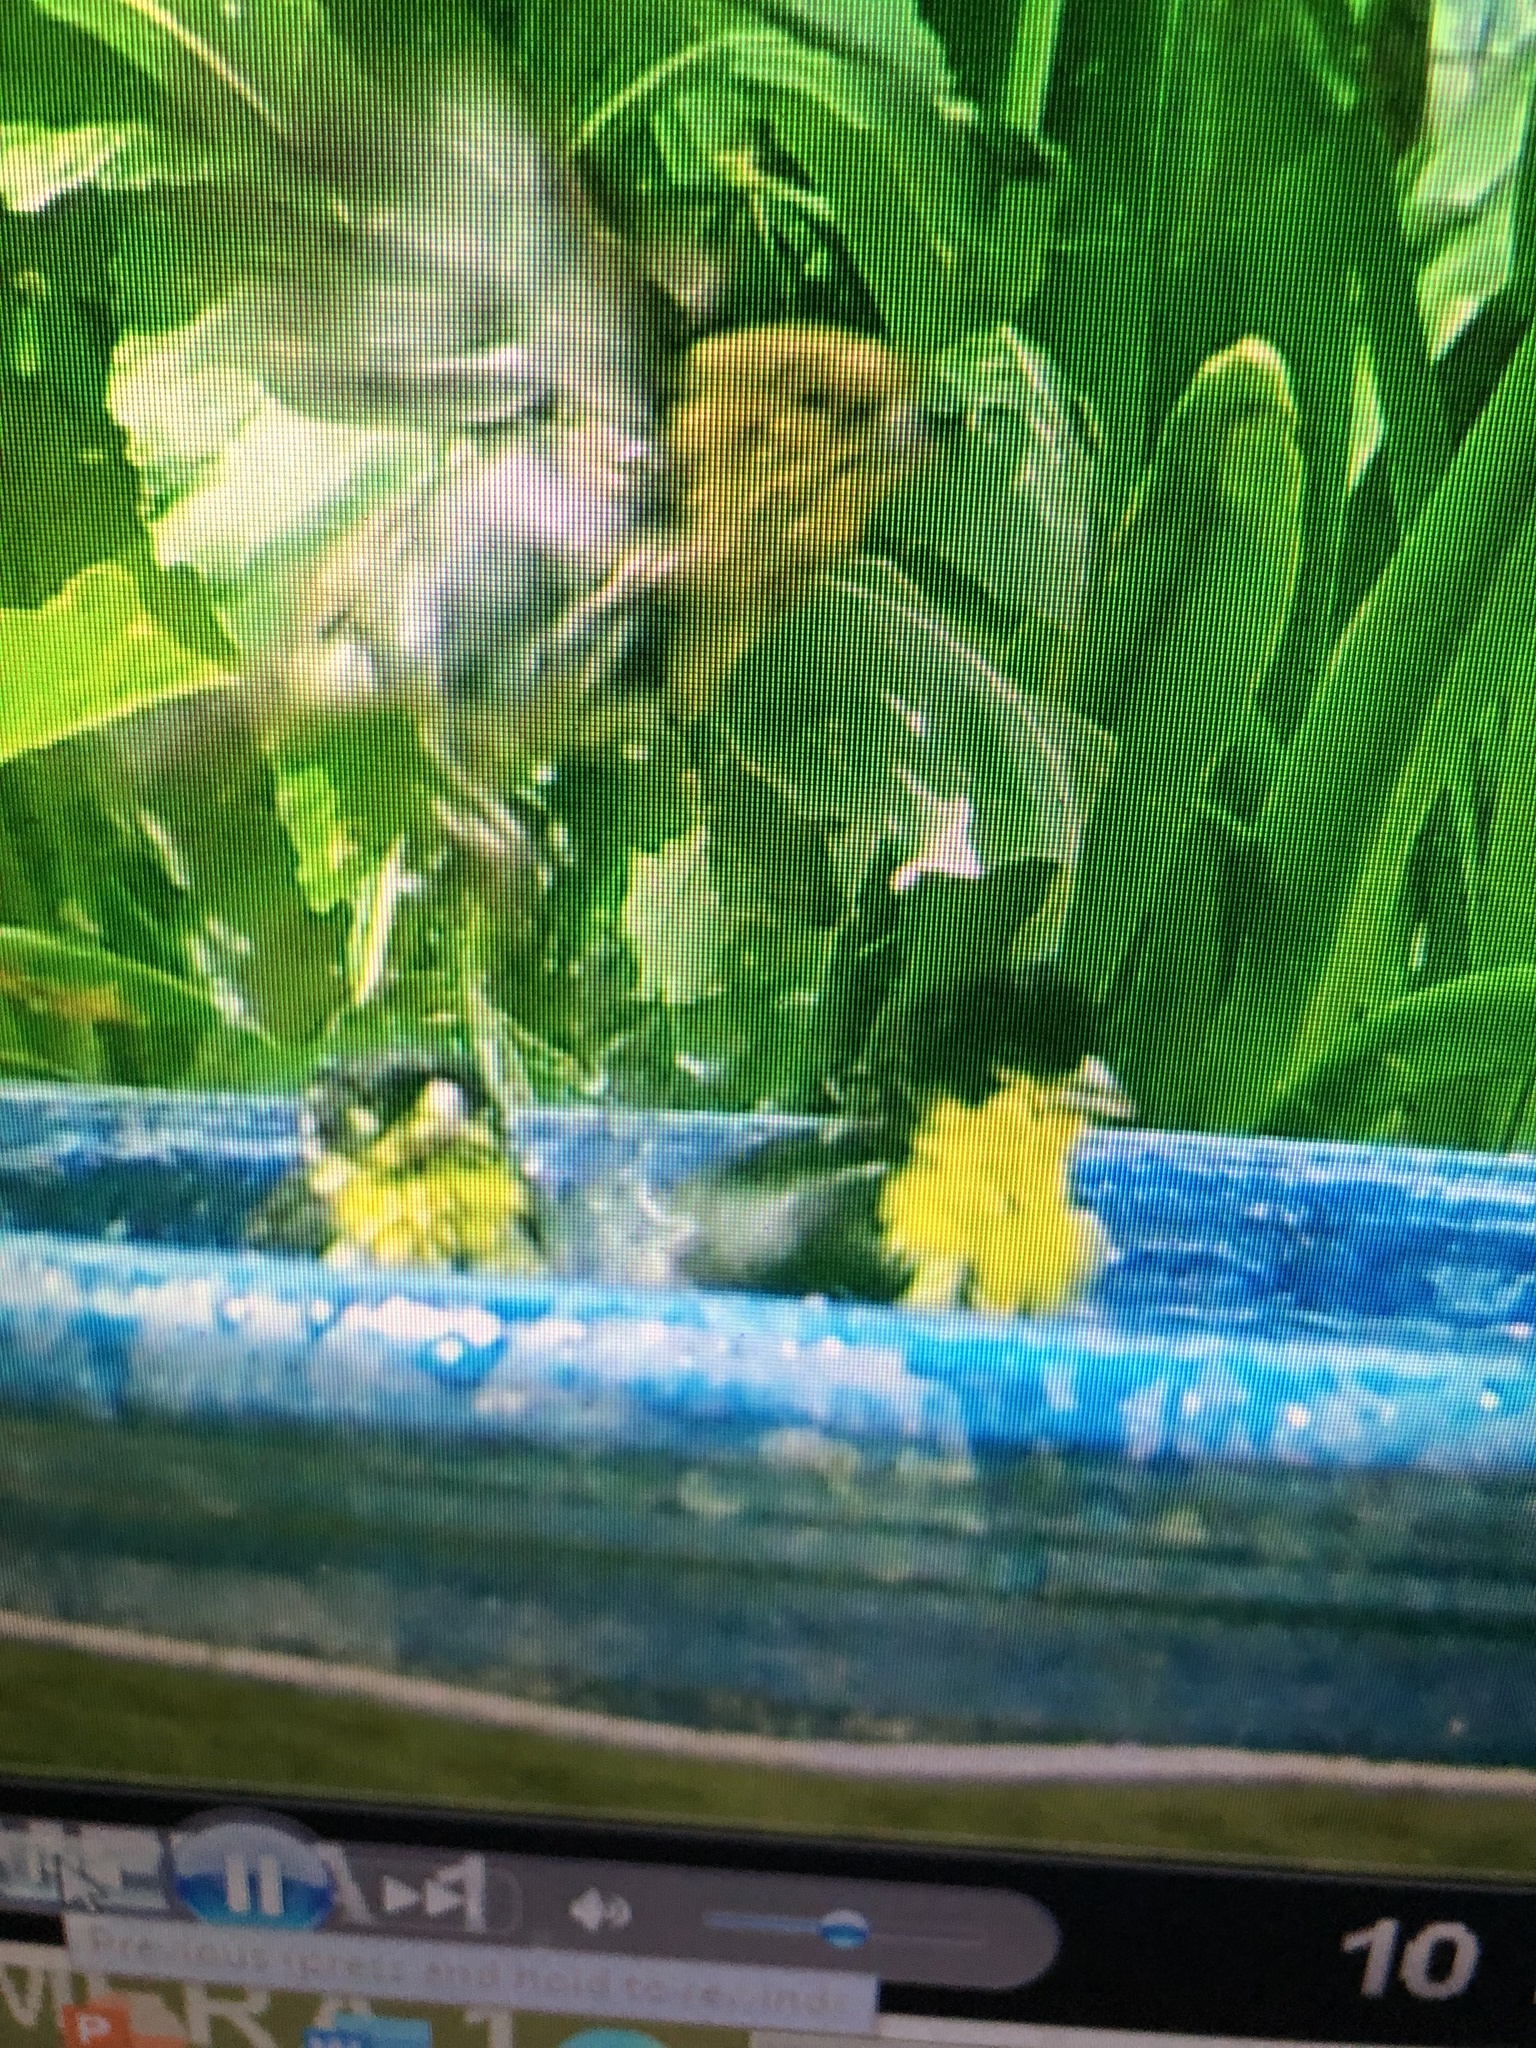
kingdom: Animalia
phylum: Chordata
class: Aves
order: Passeriformes
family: Fringillidae
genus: Spinus
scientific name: Spinus psaltria
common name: Lesser goldfinch
